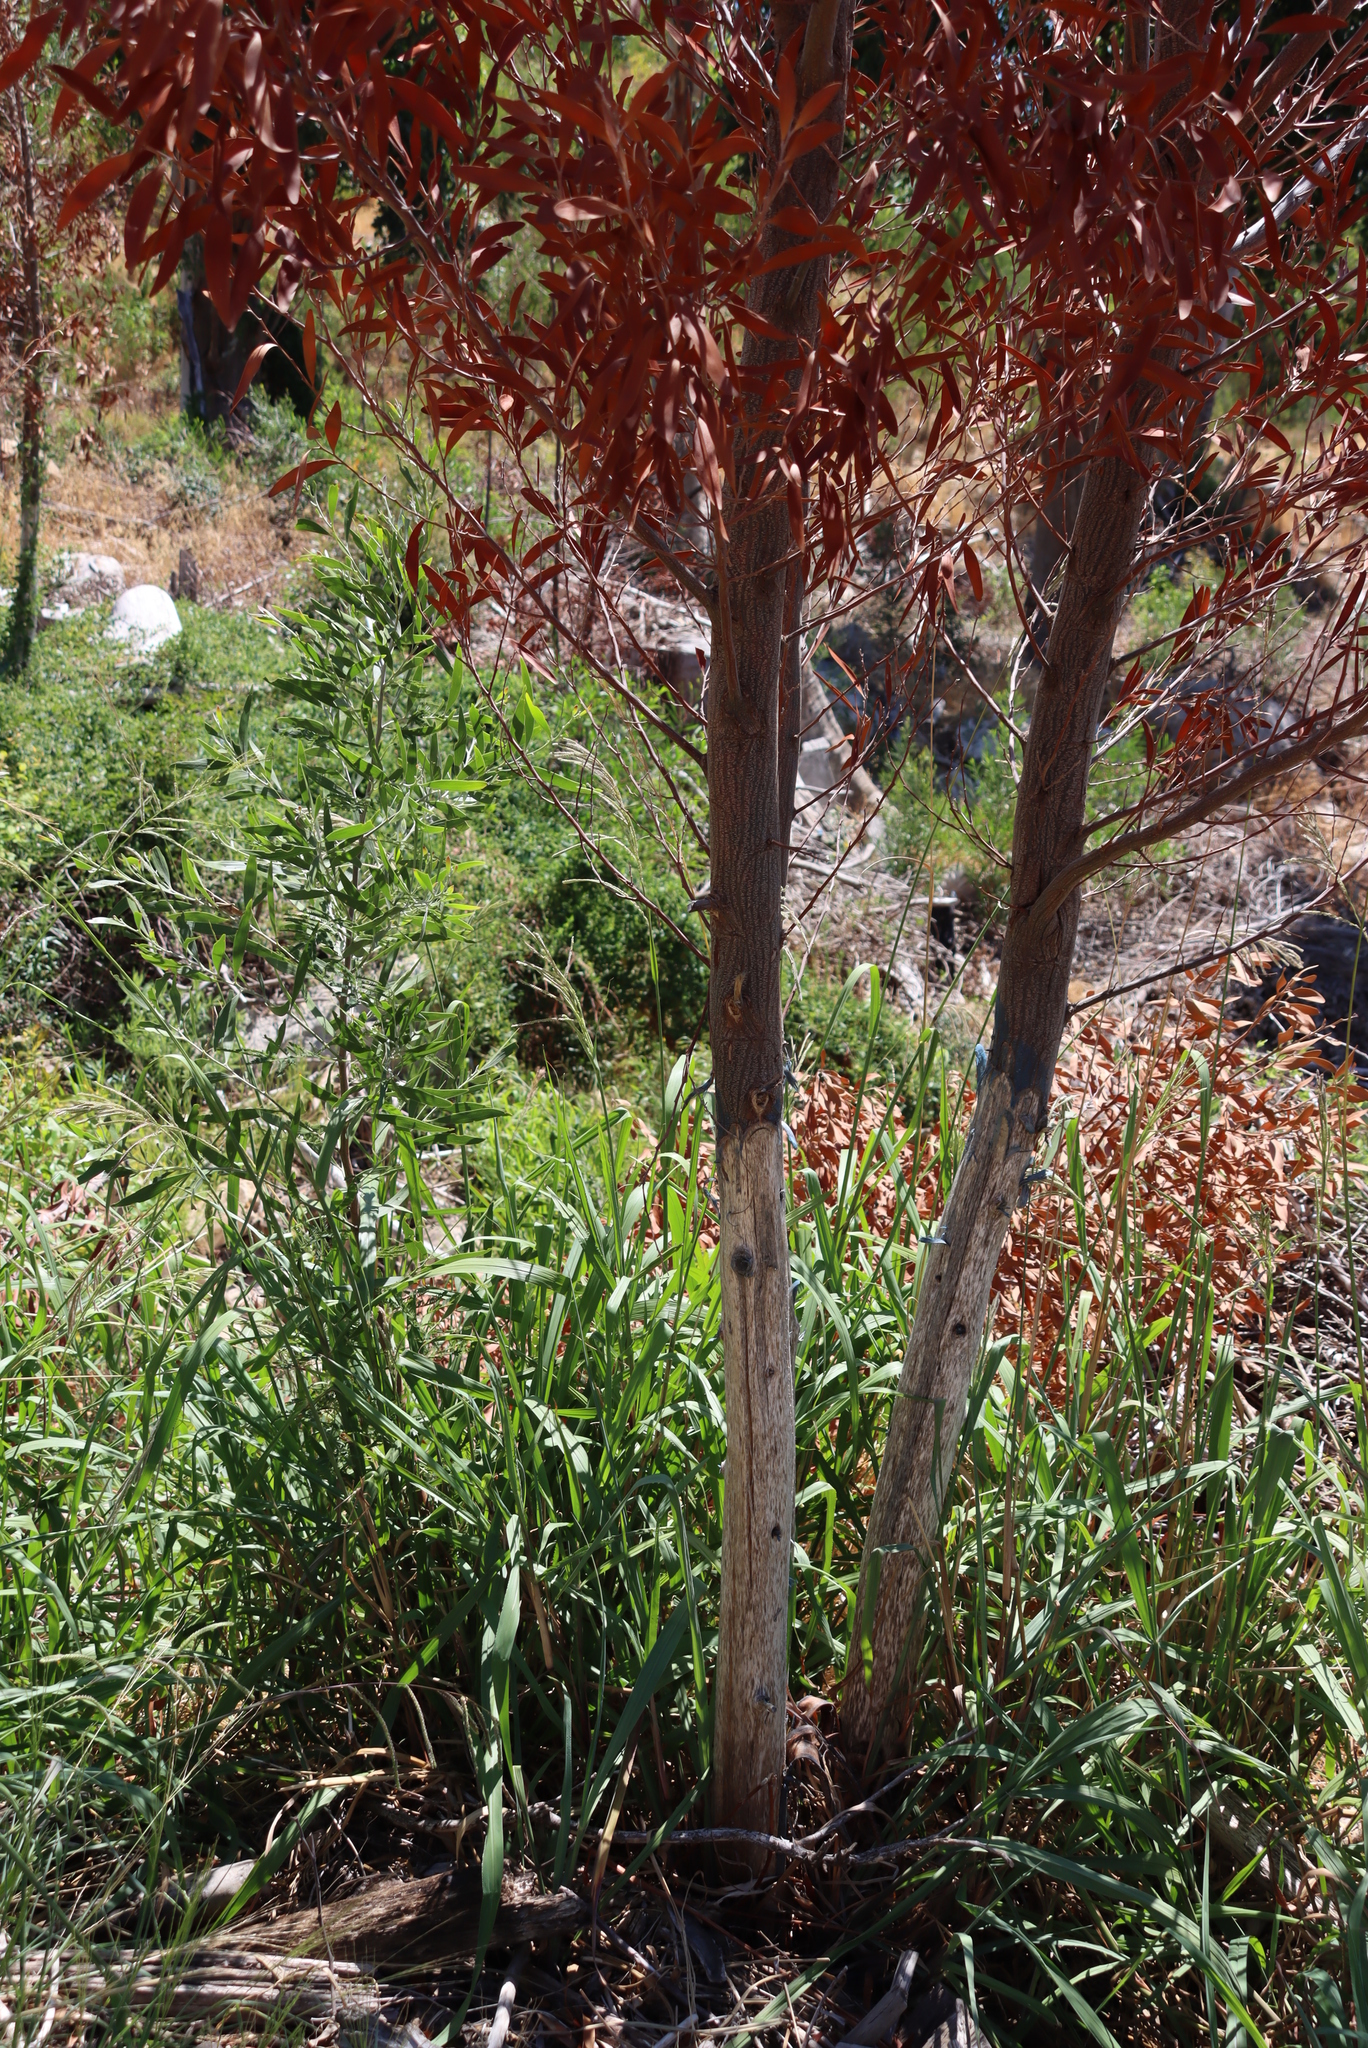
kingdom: Plantae
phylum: Tracheophyta
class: Magnoliopsida
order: Fabales
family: Fabaceae
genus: Acacia
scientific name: Acacia melanoxylon
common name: Blackwood
